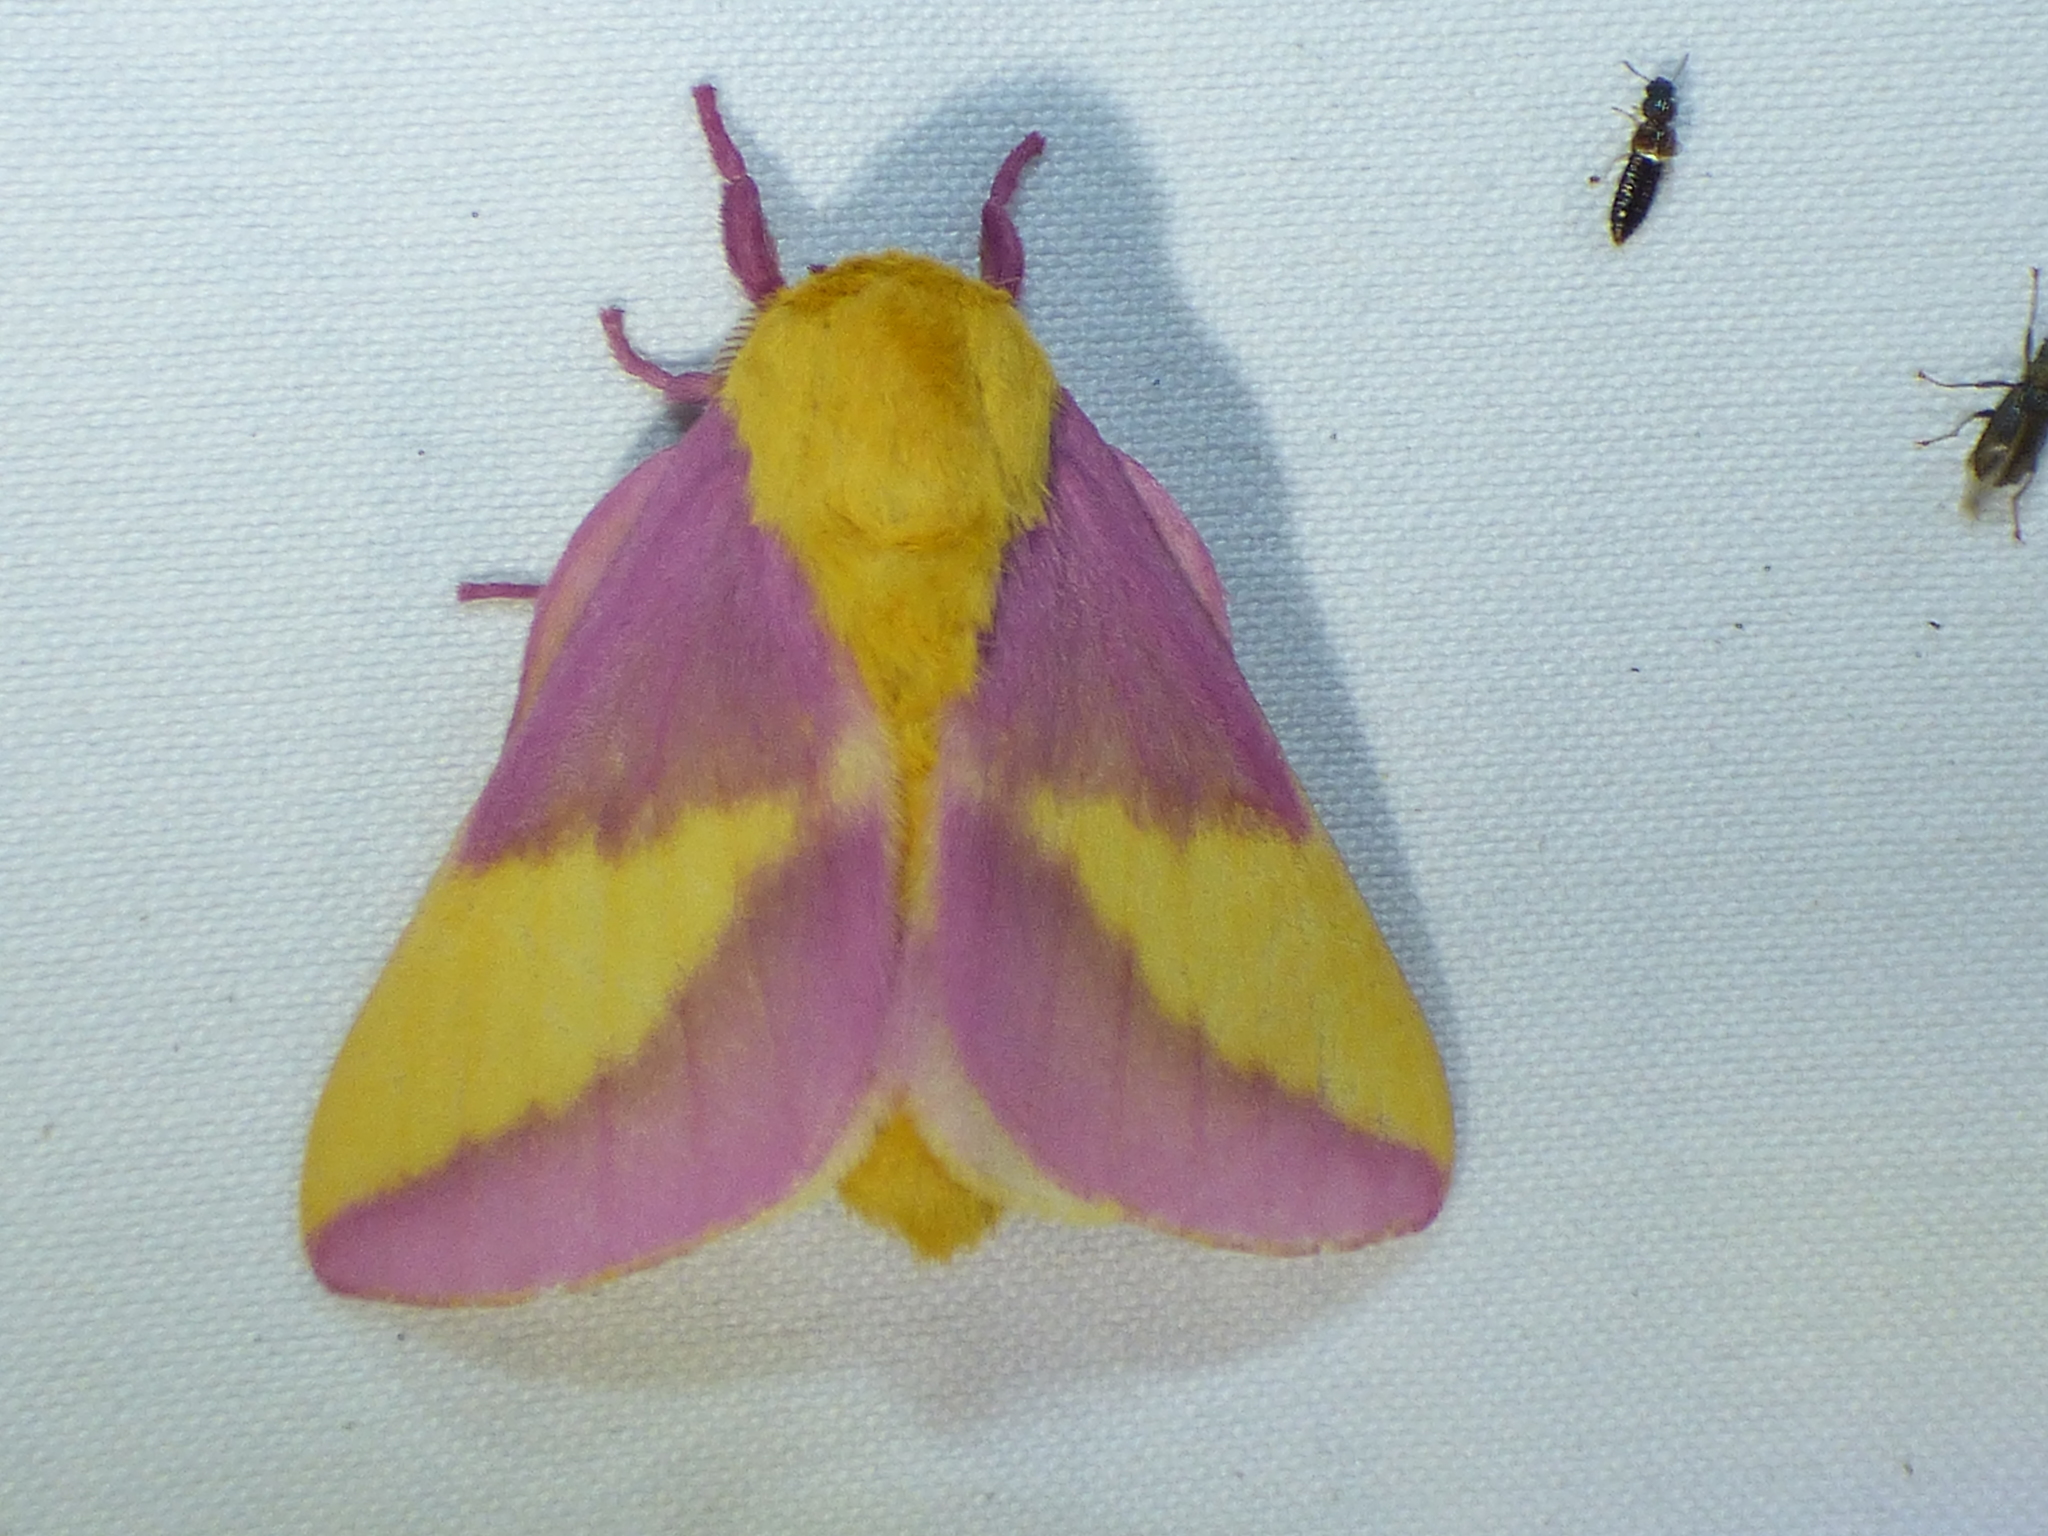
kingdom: Animalia
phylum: Arthropoda
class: Insecta
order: Lepidoptera
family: Saturniidae
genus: Dryocampa
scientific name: Dryocampa rubicunda
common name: Rosy maple moth
